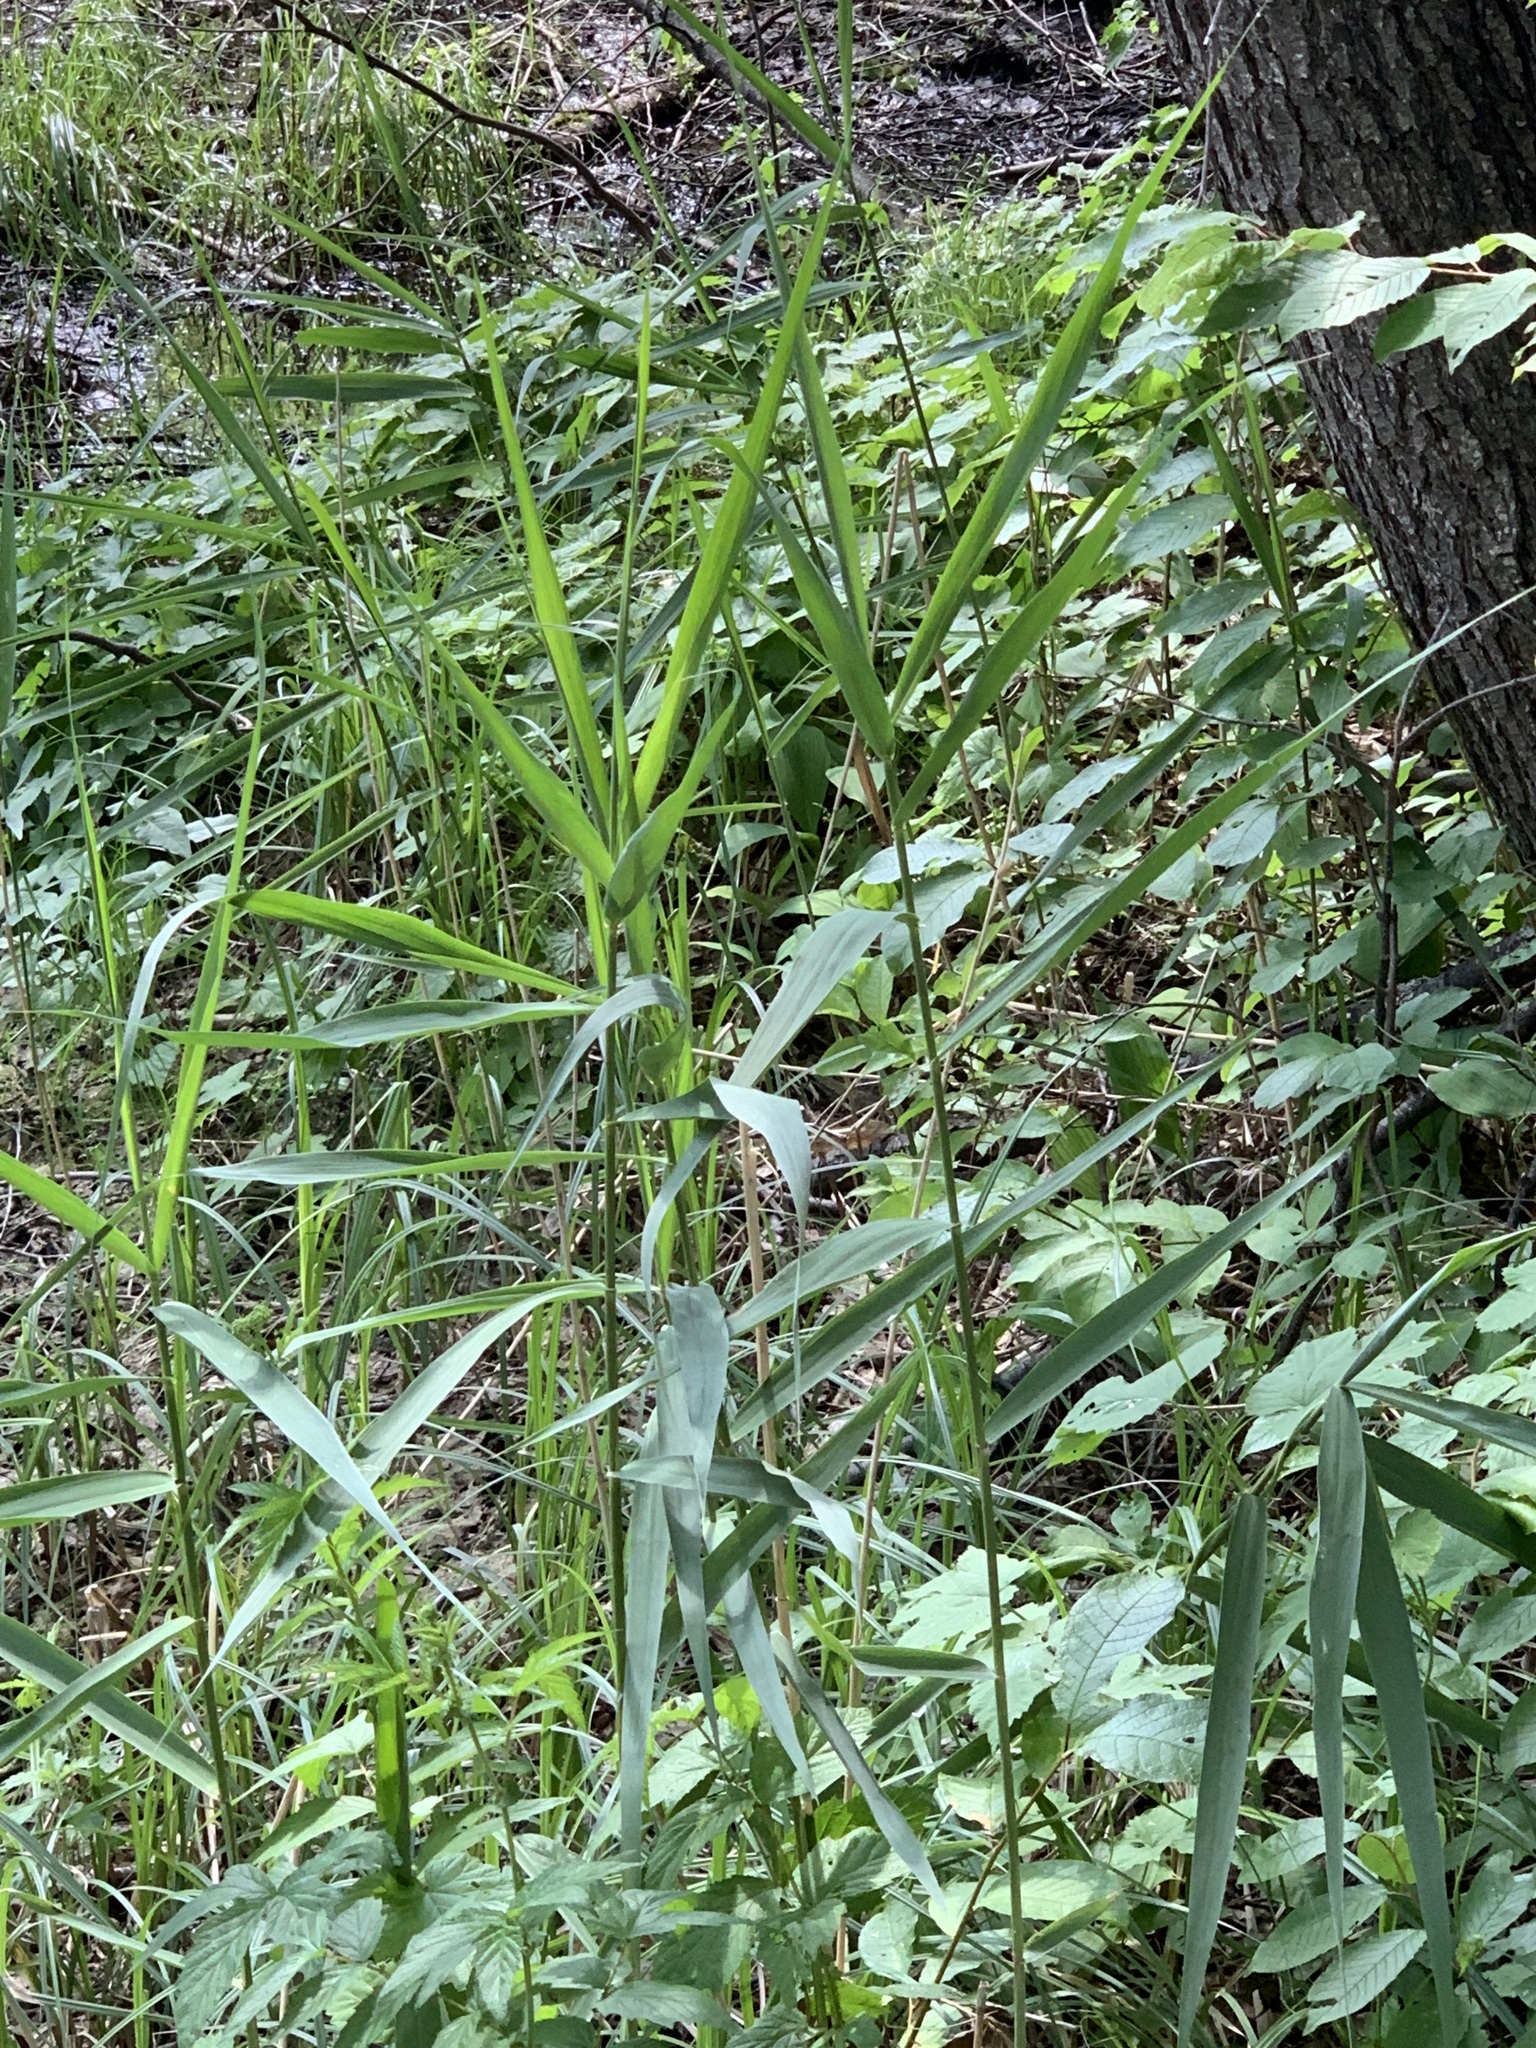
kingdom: Plantae
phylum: Tracheophyta
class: Liliopsida
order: Poales
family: Poaceae
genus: Phragmites
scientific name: Phragmites australis
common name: Common reed
